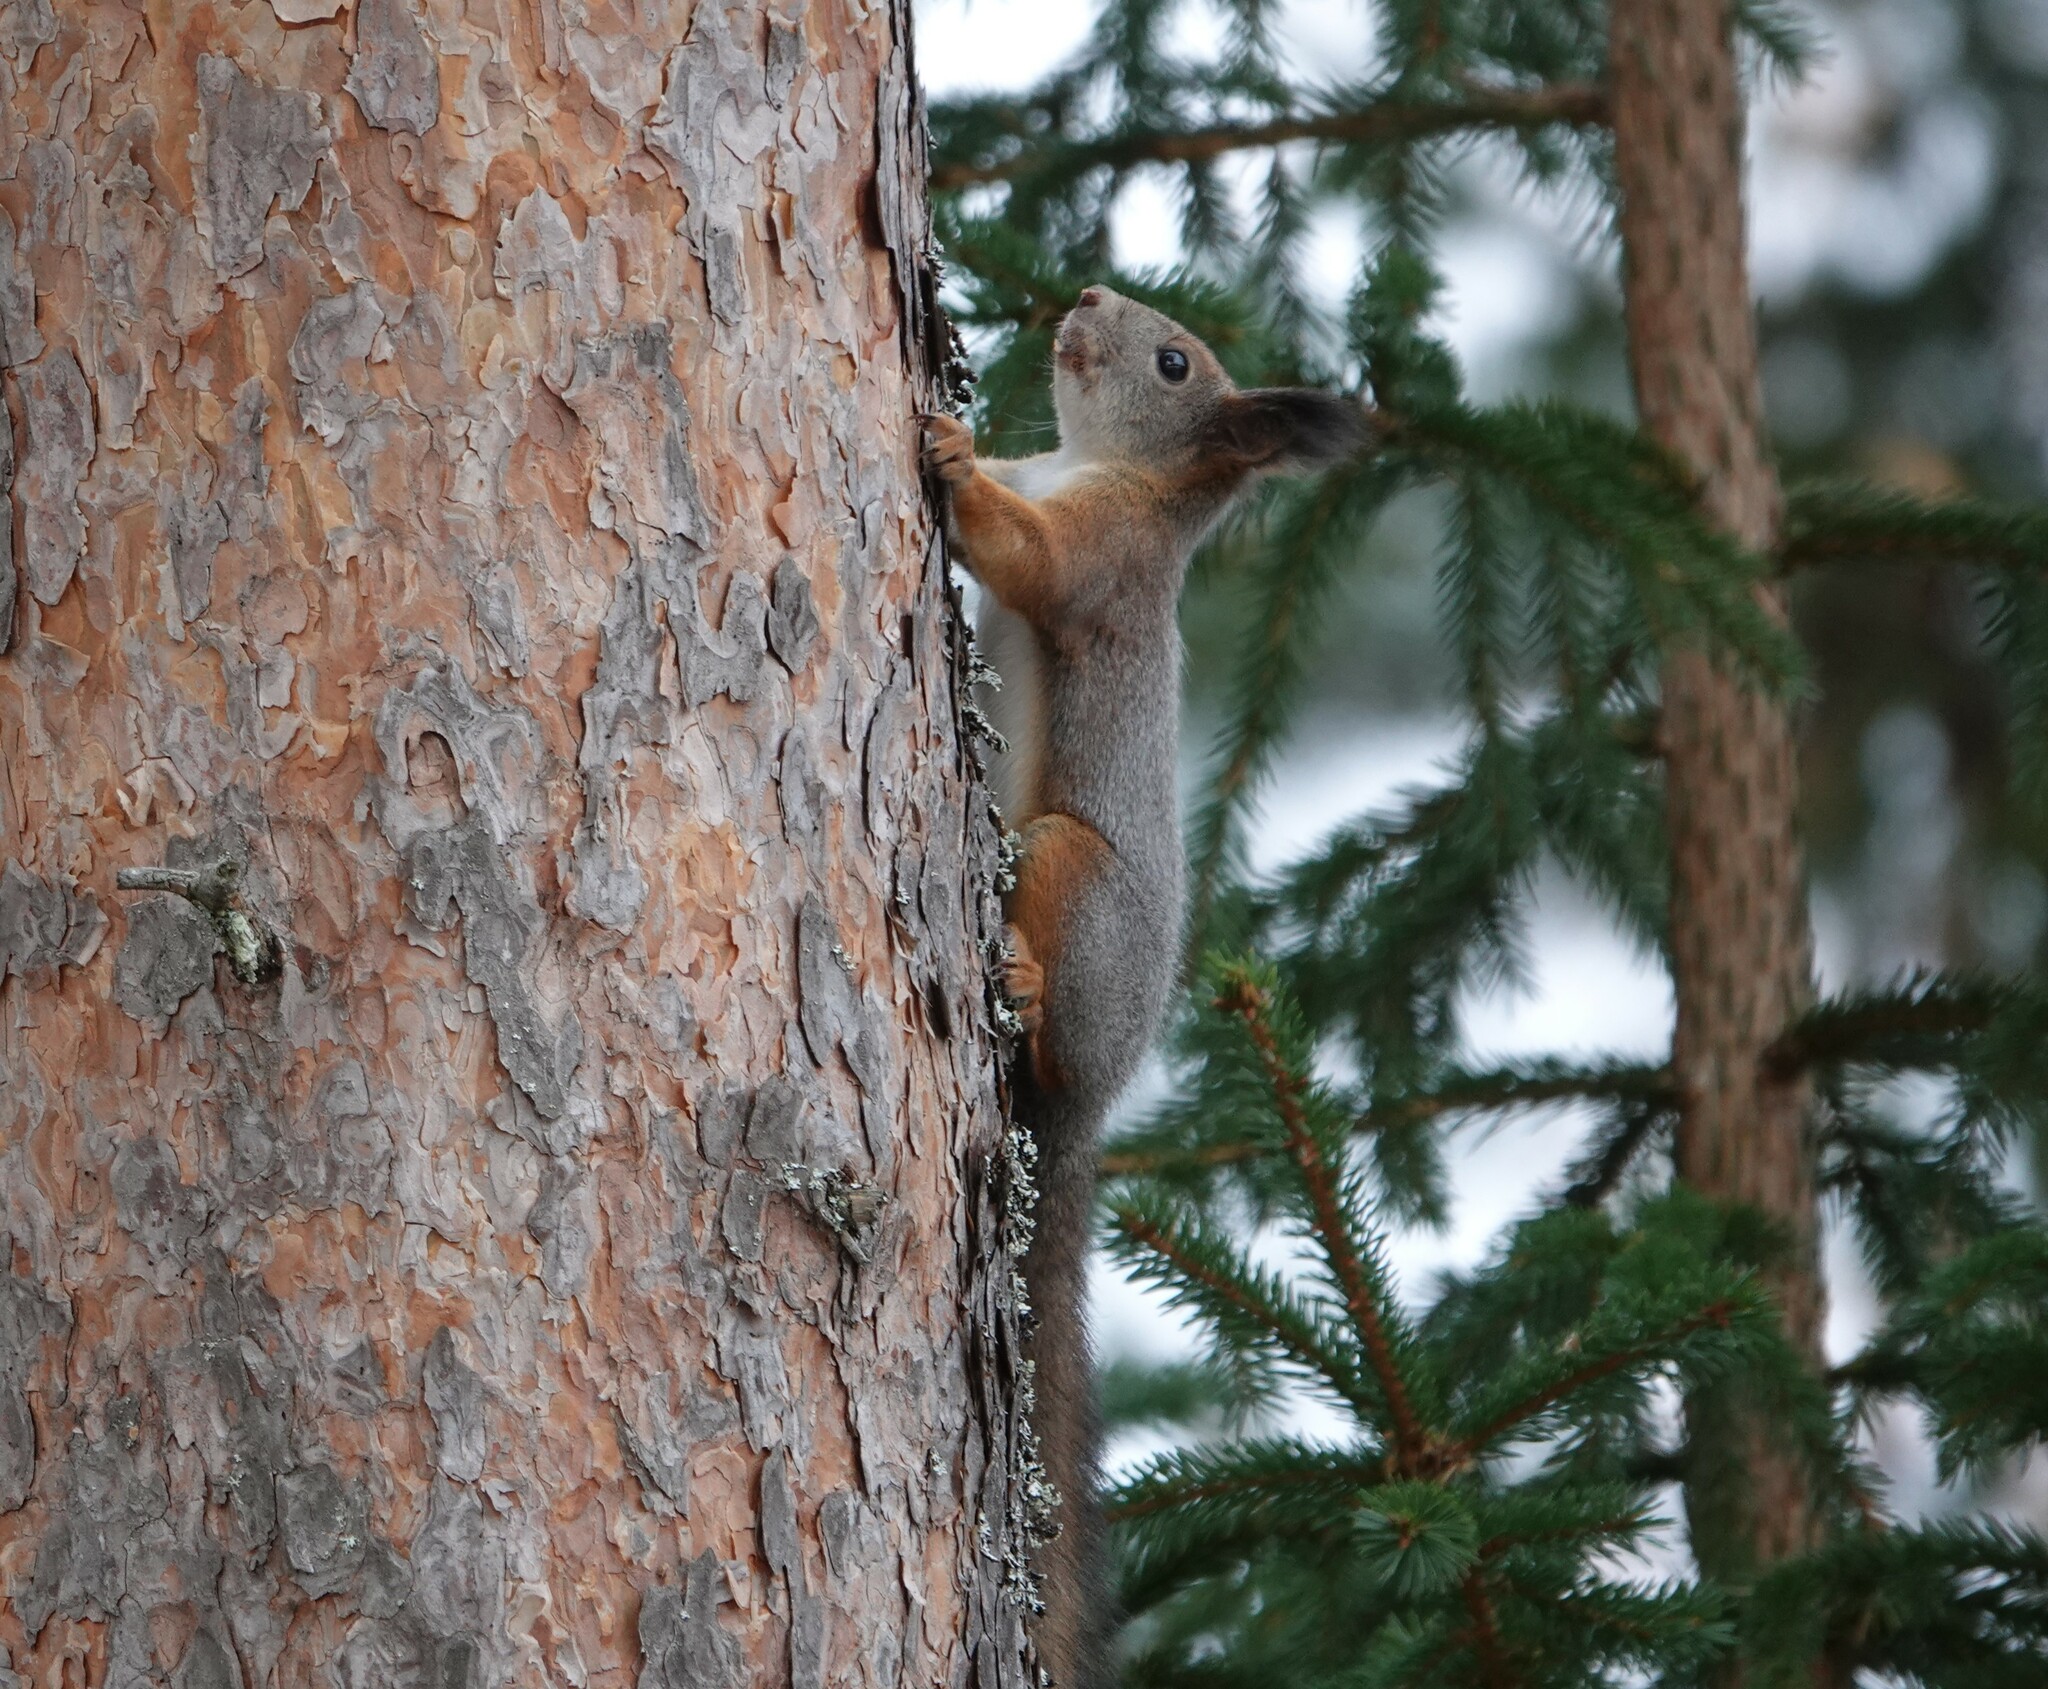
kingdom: Animalia
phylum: Chordata
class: Mammalia
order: Rodentia
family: Sciuridae
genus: Sciurus
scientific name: Sciurus vulgaris
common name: Eurasian red squirrel
